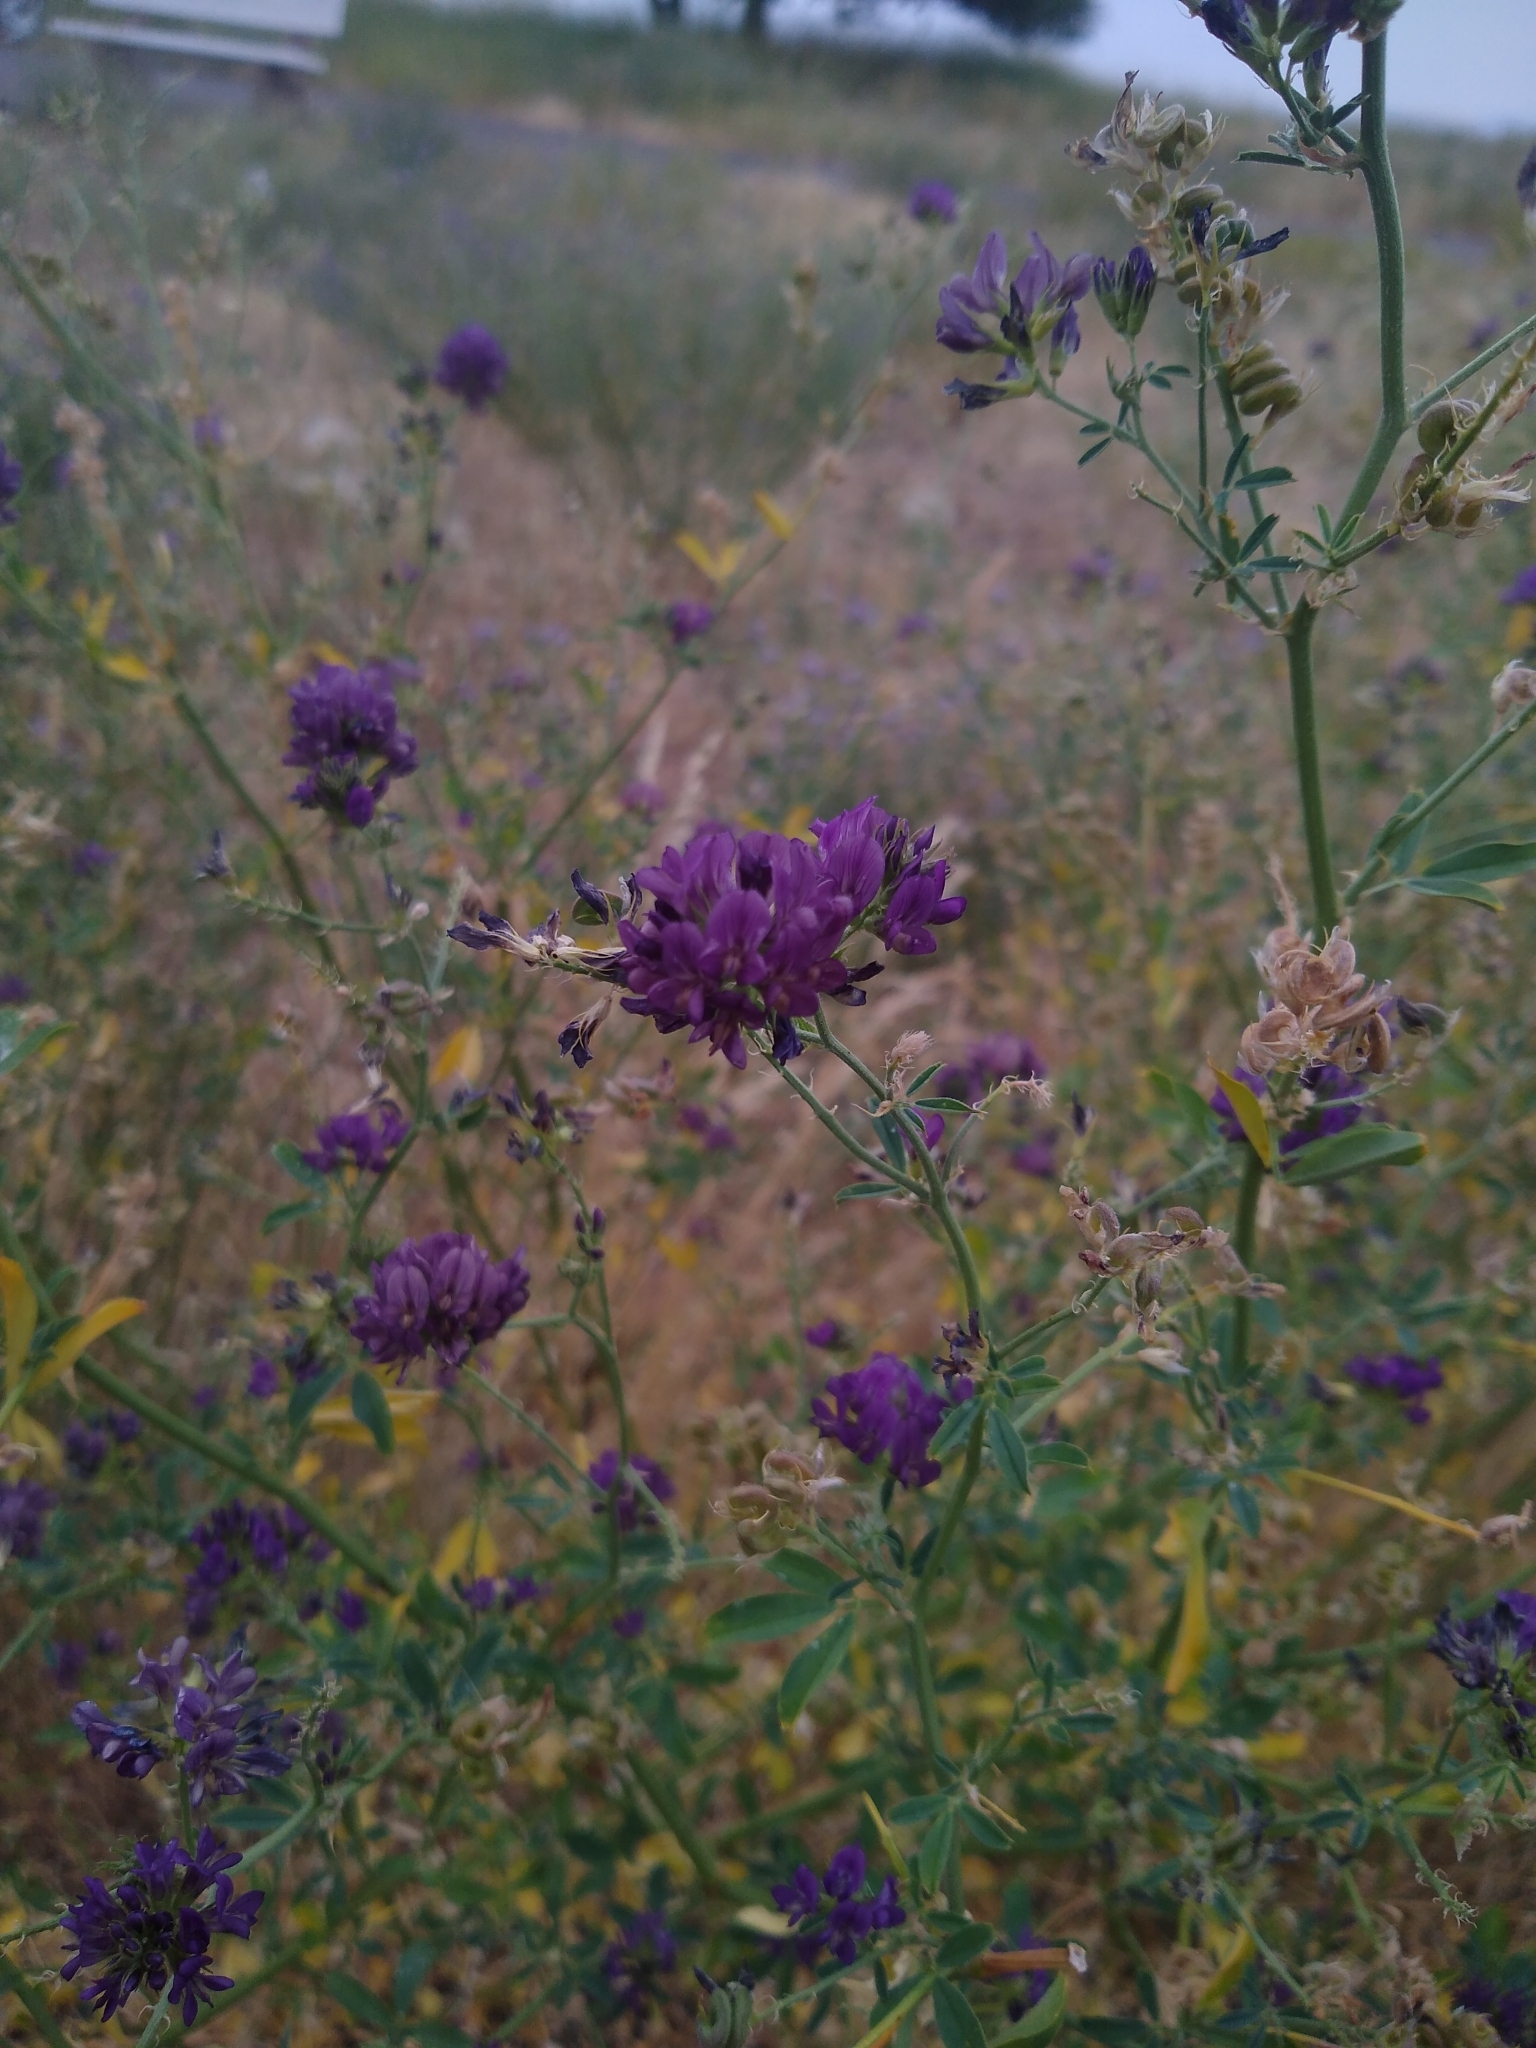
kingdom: Plantae
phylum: Tracheophyta
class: Magnoliopsida
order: Fabales
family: Fabaceae
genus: Medicago
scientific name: Medicago sativa
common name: Alfalfa
